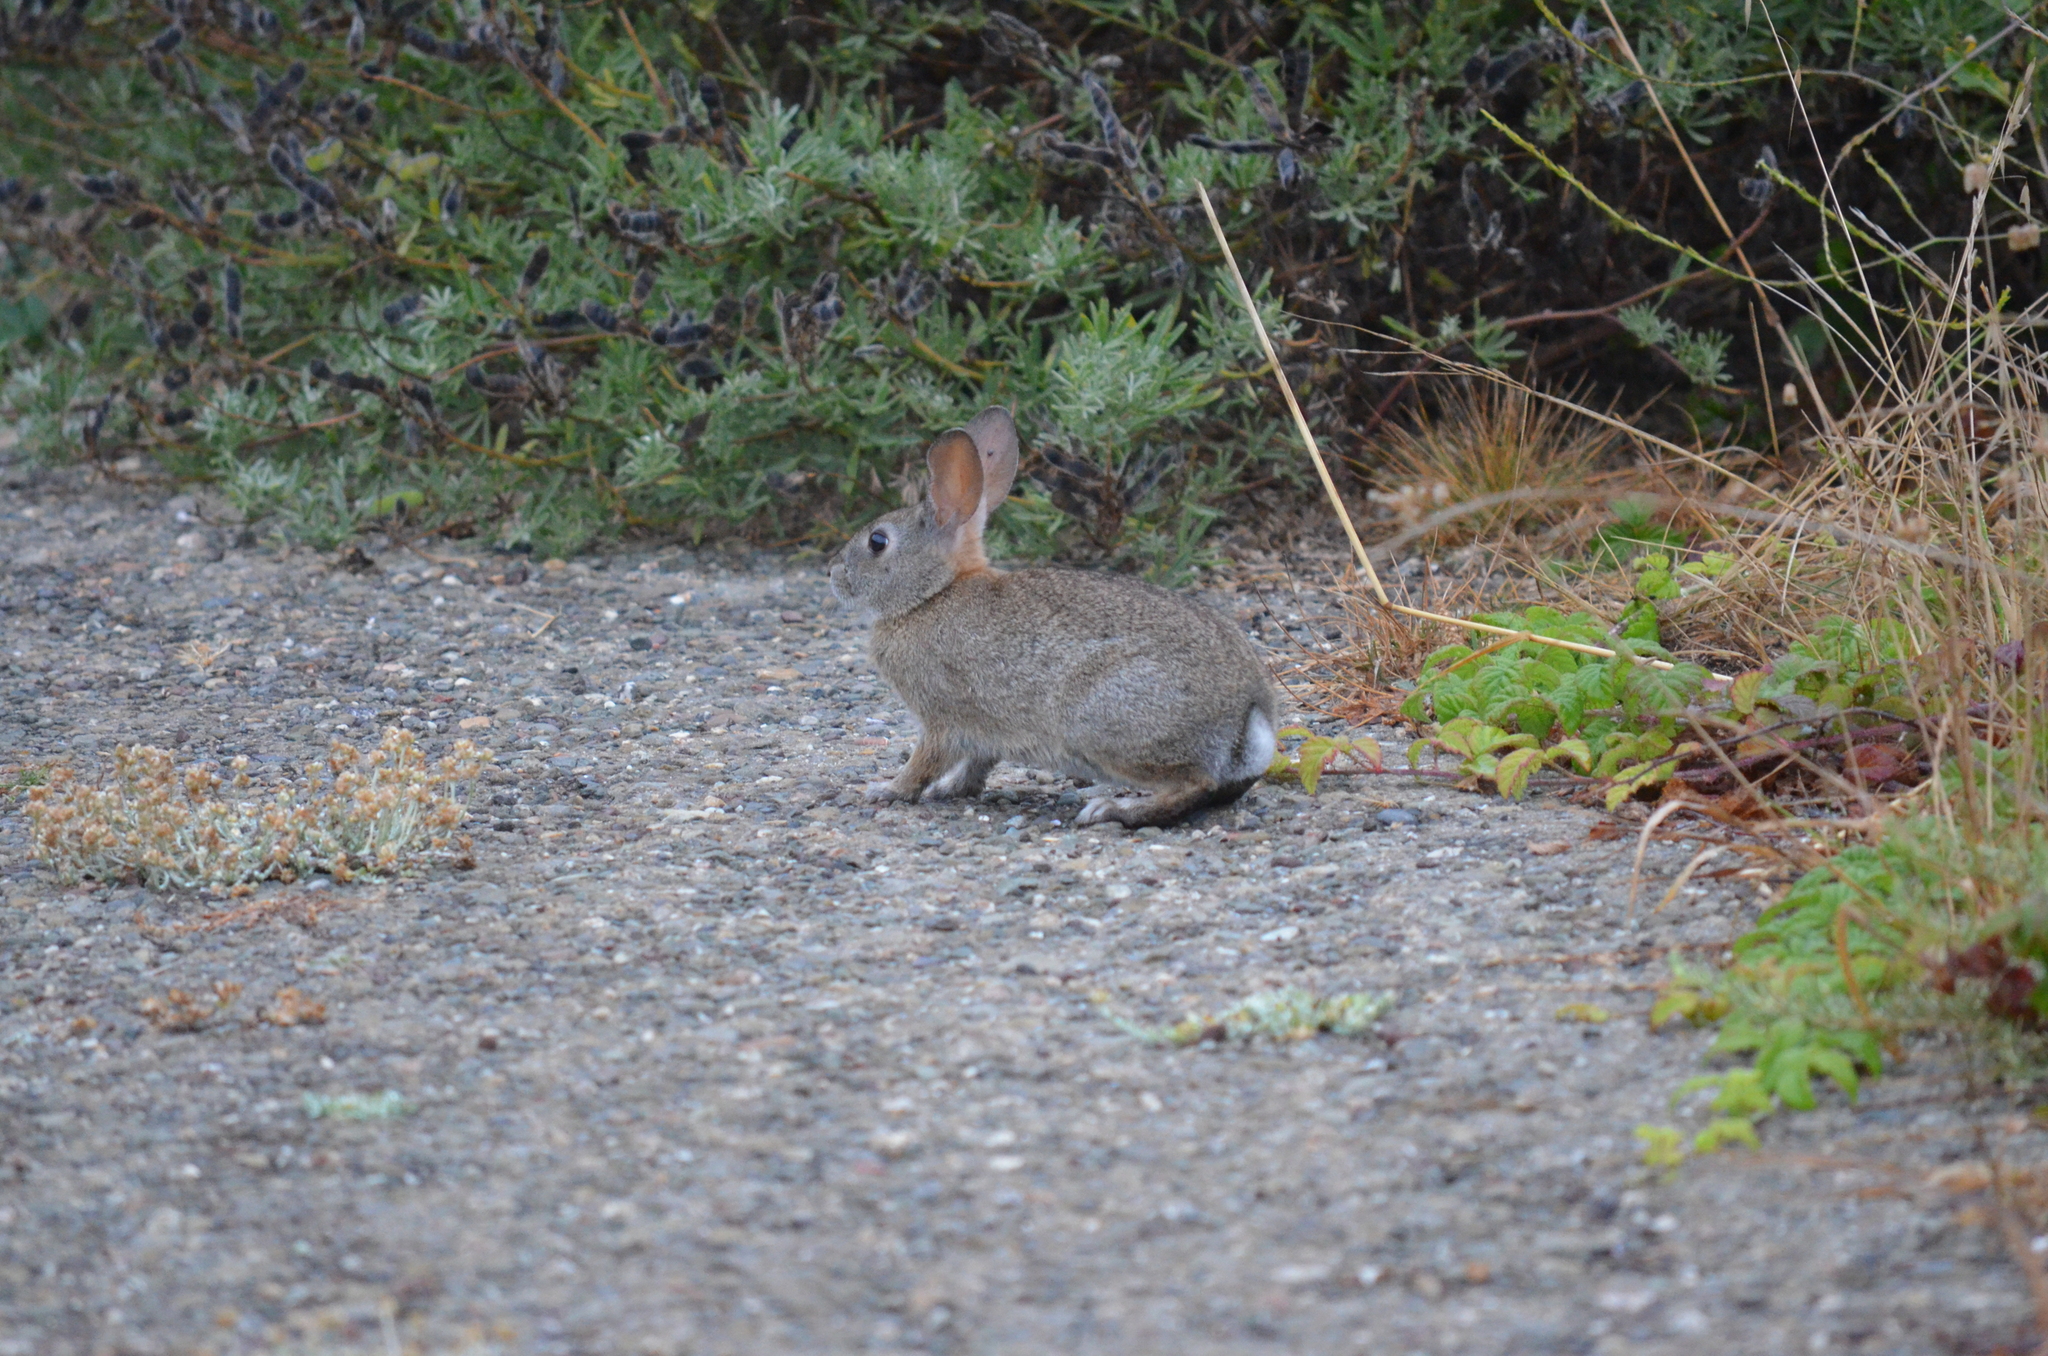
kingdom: Animalia
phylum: Chordata
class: Mammalia
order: Lagomorpha
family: Leporidae
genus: Sylvilagus
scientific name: Sylvilagus bachmani
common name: Brush rabbit
